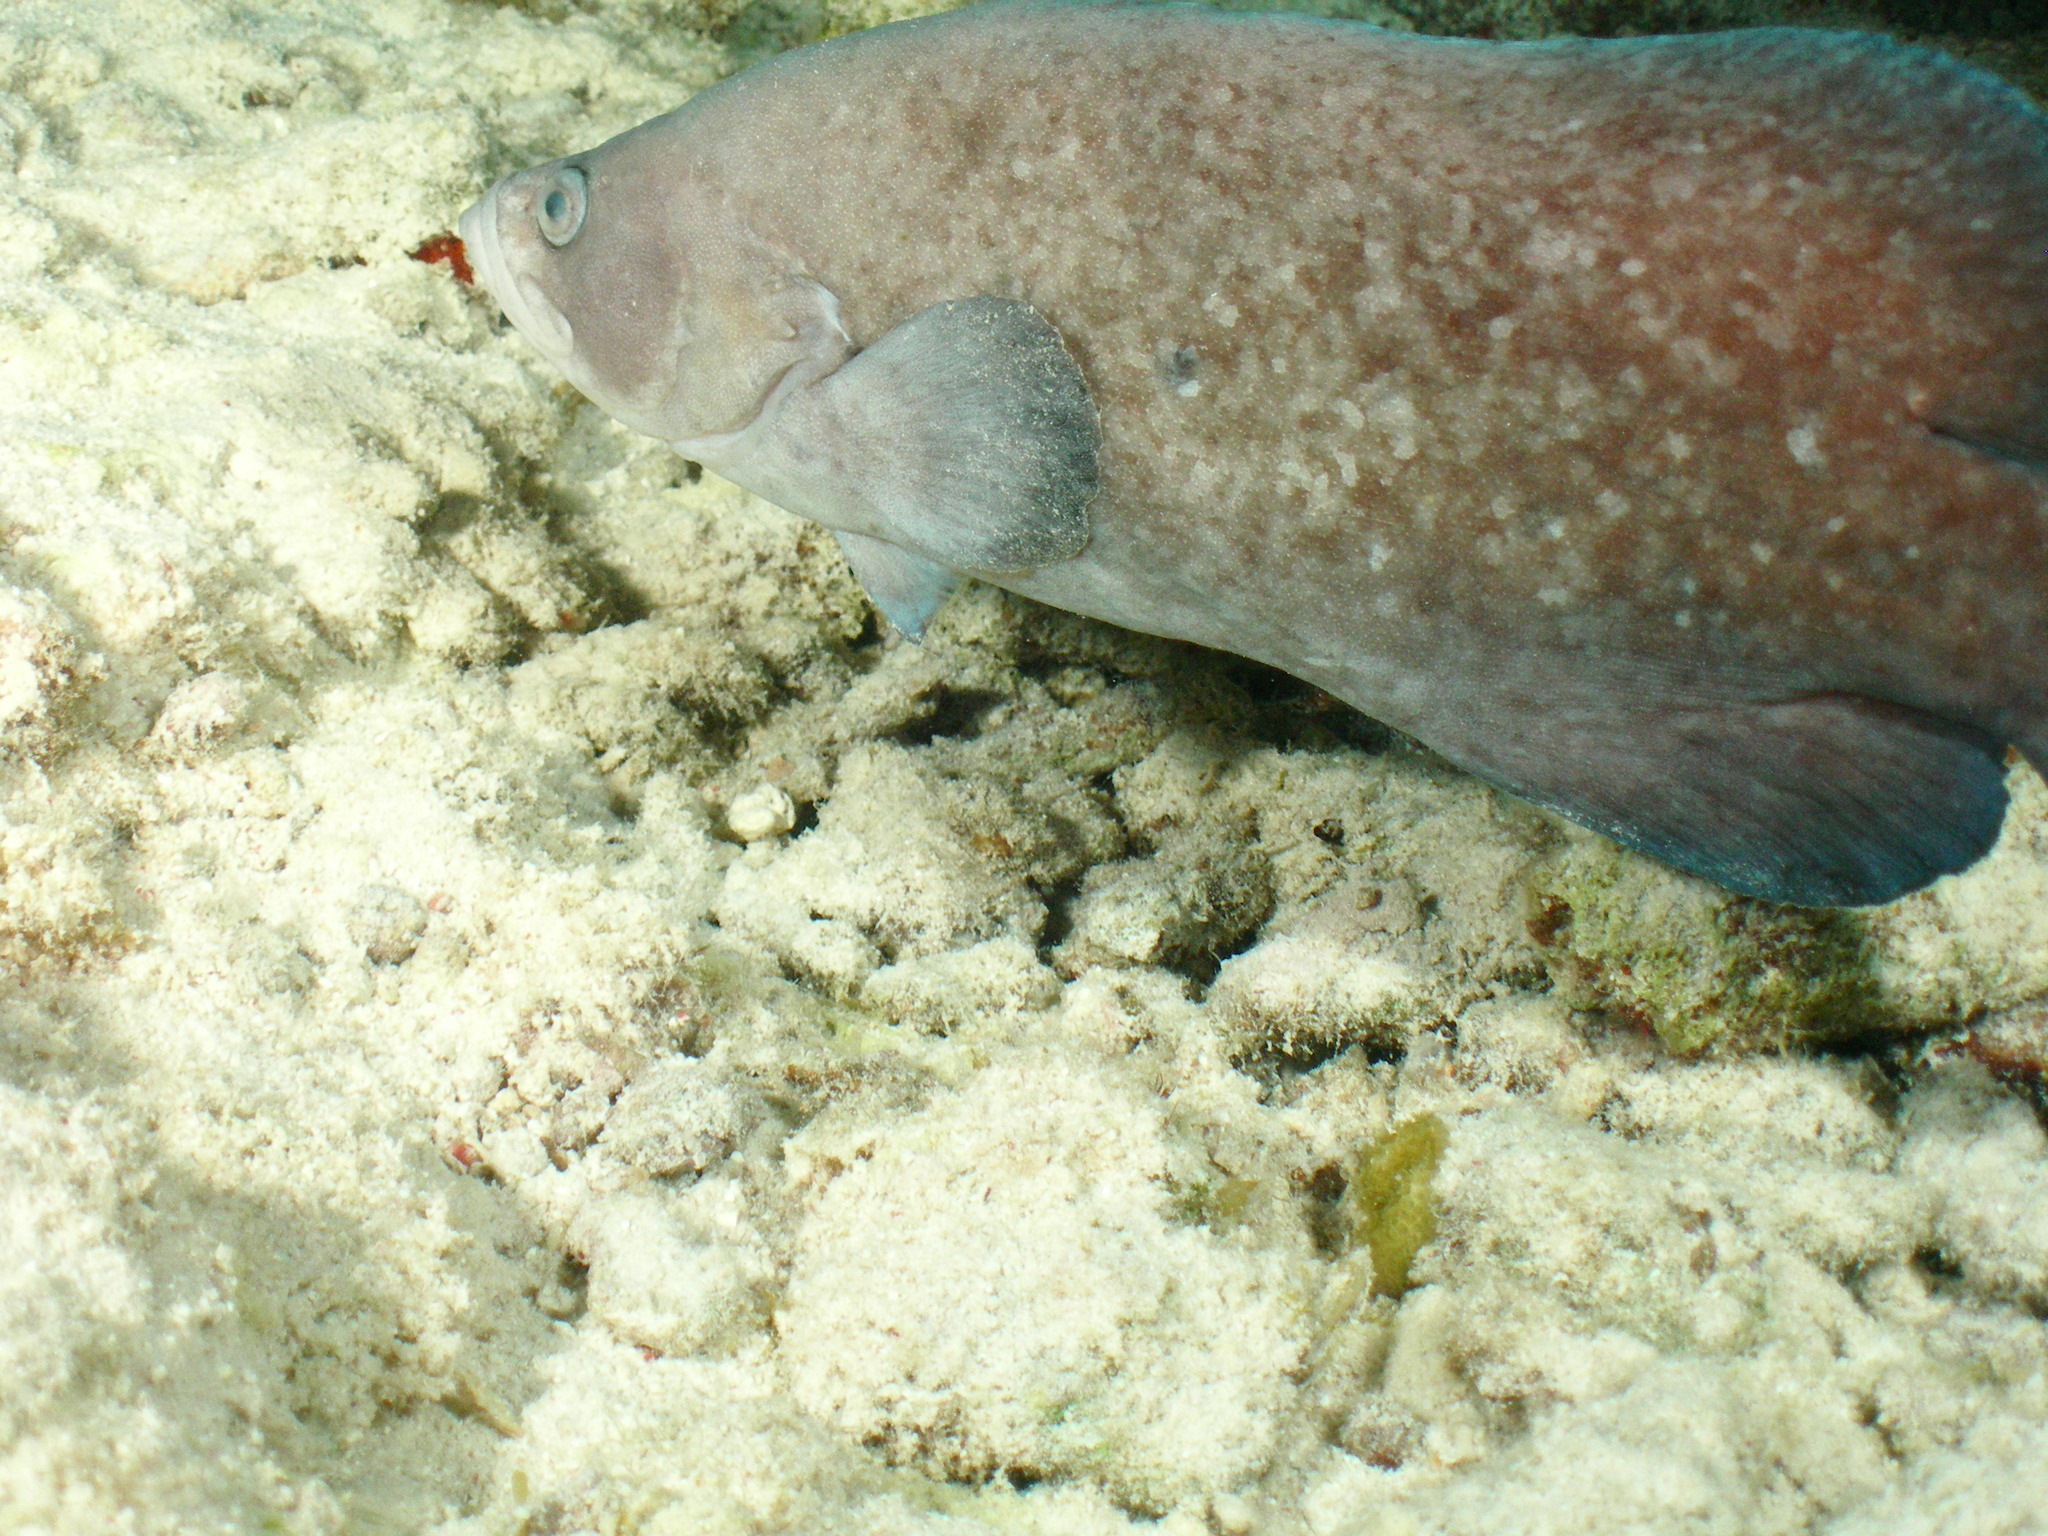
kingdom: Animalia
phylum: Chordata
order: Perciformes
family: Serranidae
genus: Rypticus
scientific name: Rypticus saponaceus
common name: Soapfish
